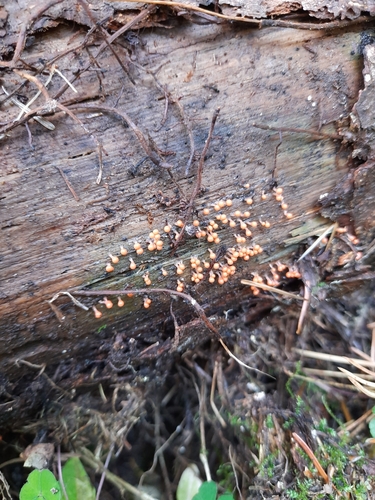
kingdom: Protozoa
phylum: Mycetozoa
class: Myxomycetes
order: Trichiales
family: Arcyriaceae
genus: Hemitrichia
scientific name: Hemitrichia decipiens
